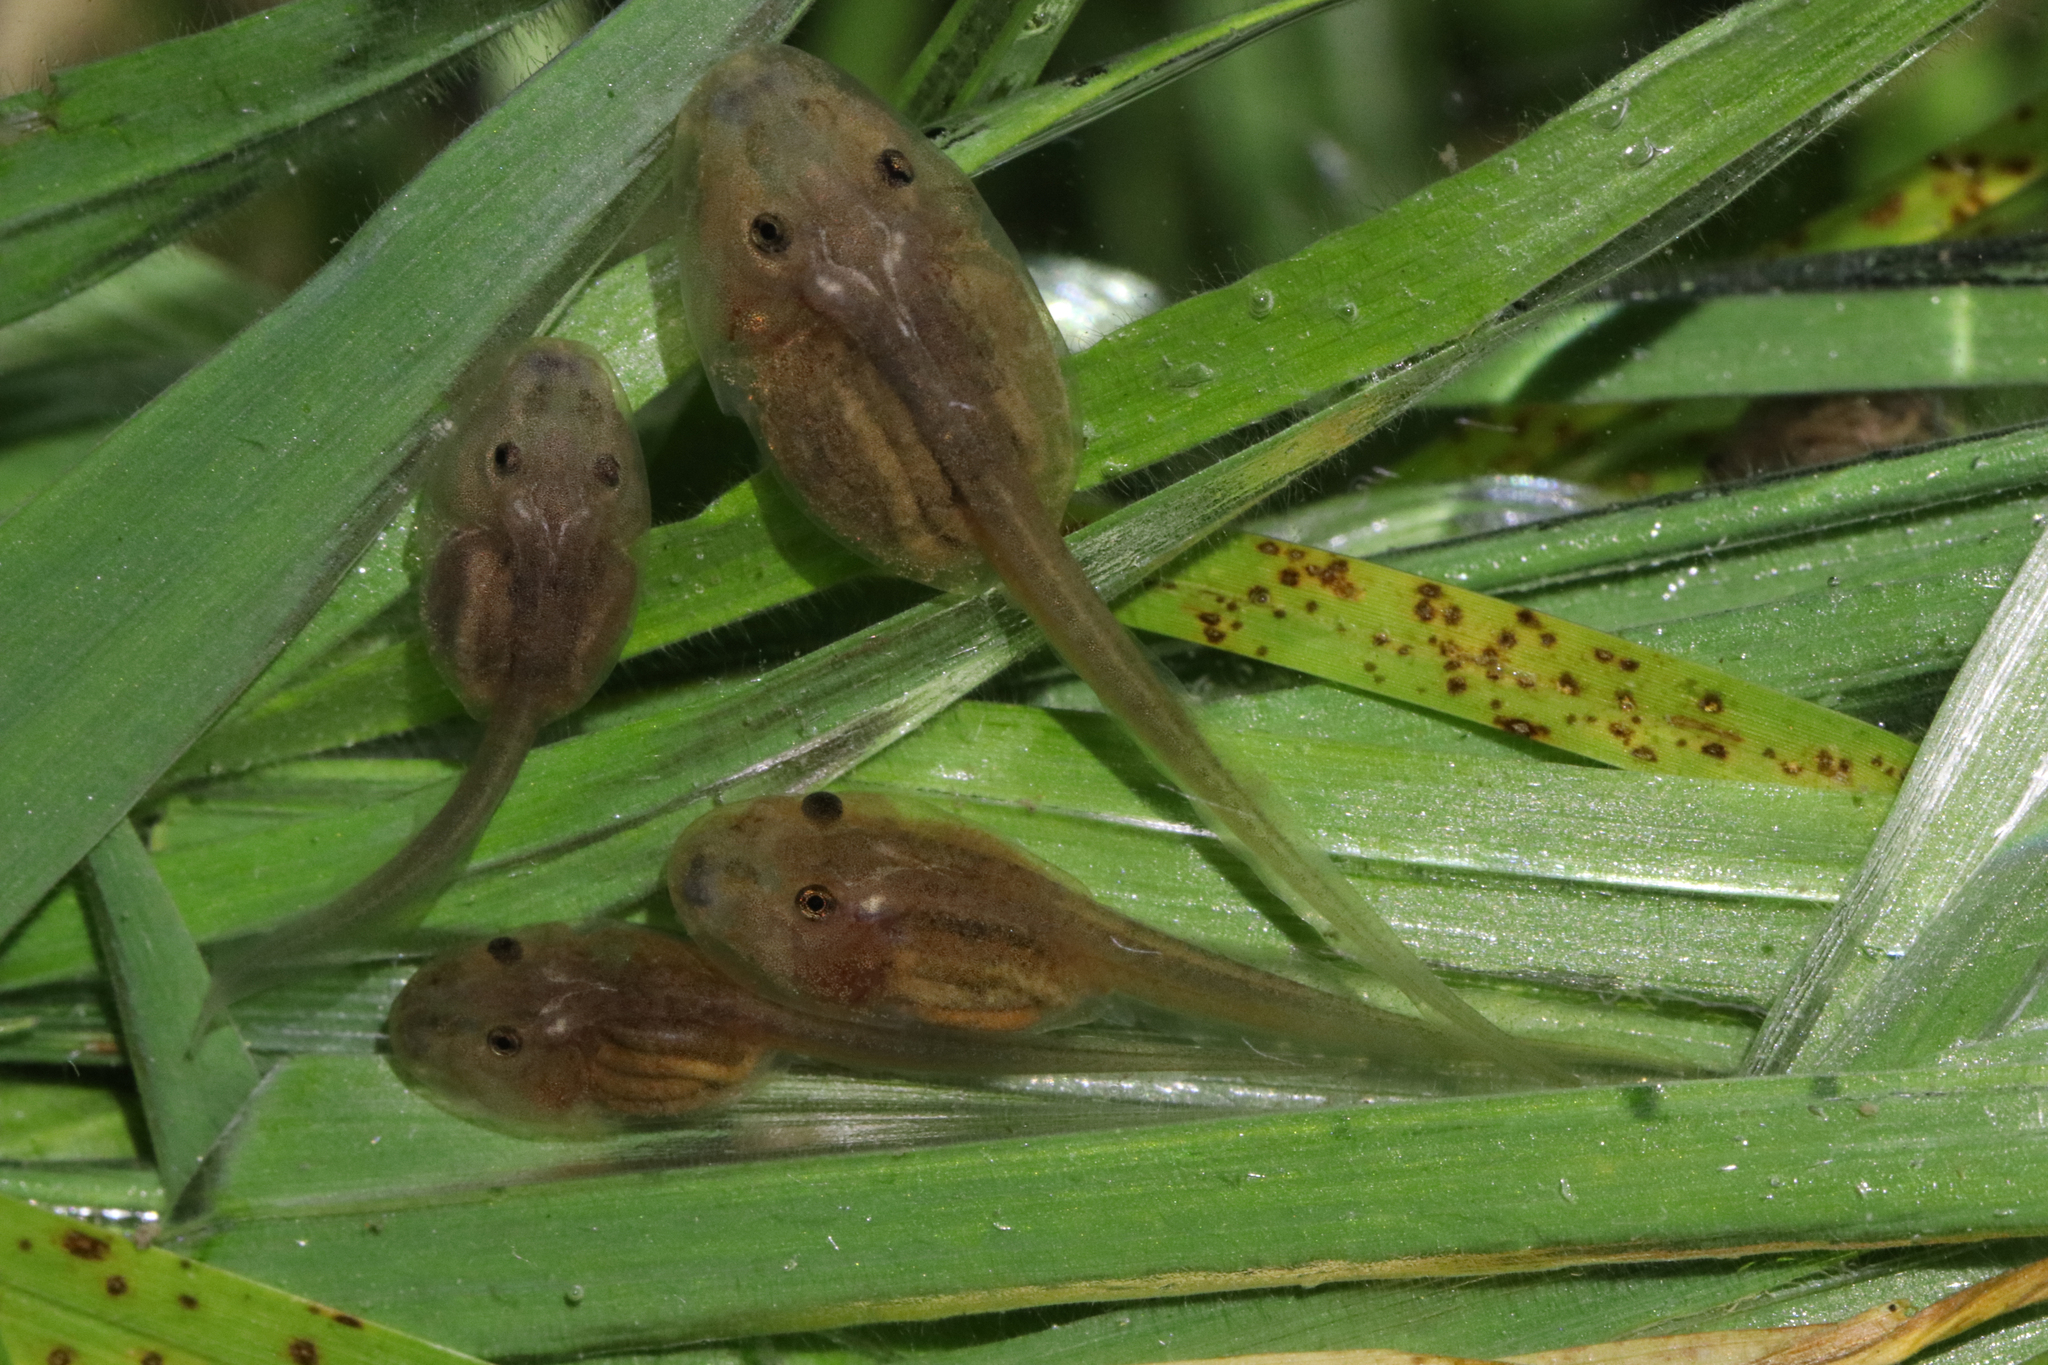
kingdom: Animalia
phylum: Chordata
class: Amphibia
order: Anura
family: Pyxicephalidae
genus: Strongylopus
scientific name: Strongylopus grayii
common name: Gray's stream frog
